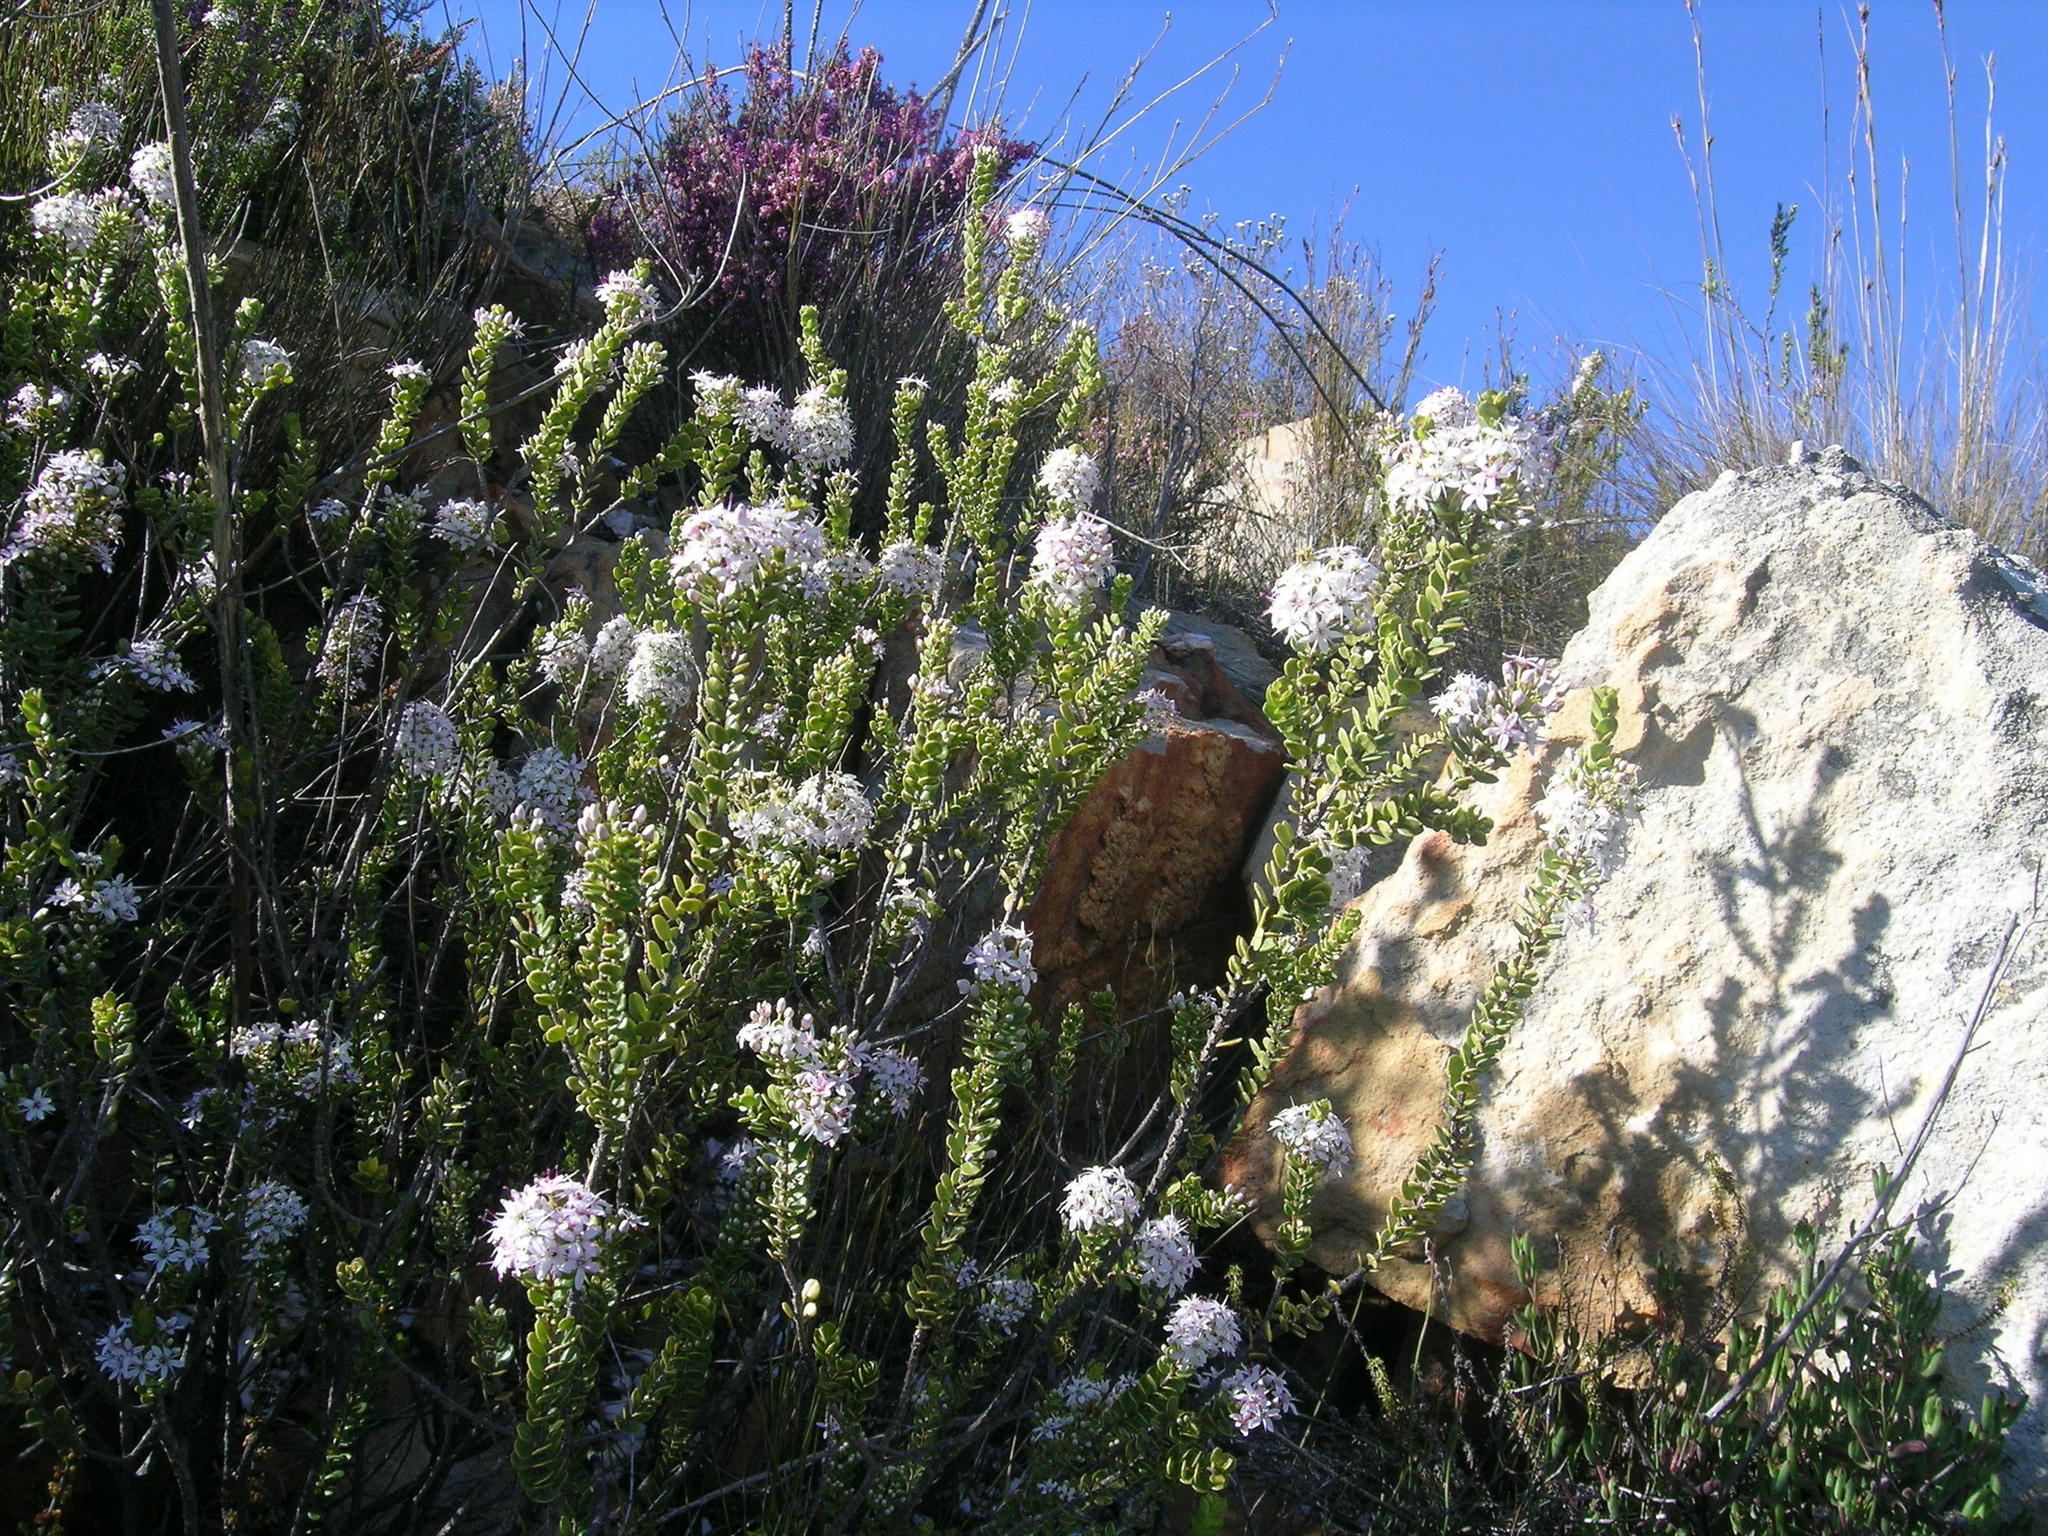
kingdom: Plantae
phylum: Tracheophyta
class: Magnoliopsida
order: Sapindales
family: Rutaceae
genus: Agathosma
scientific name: Agathosma ovata
